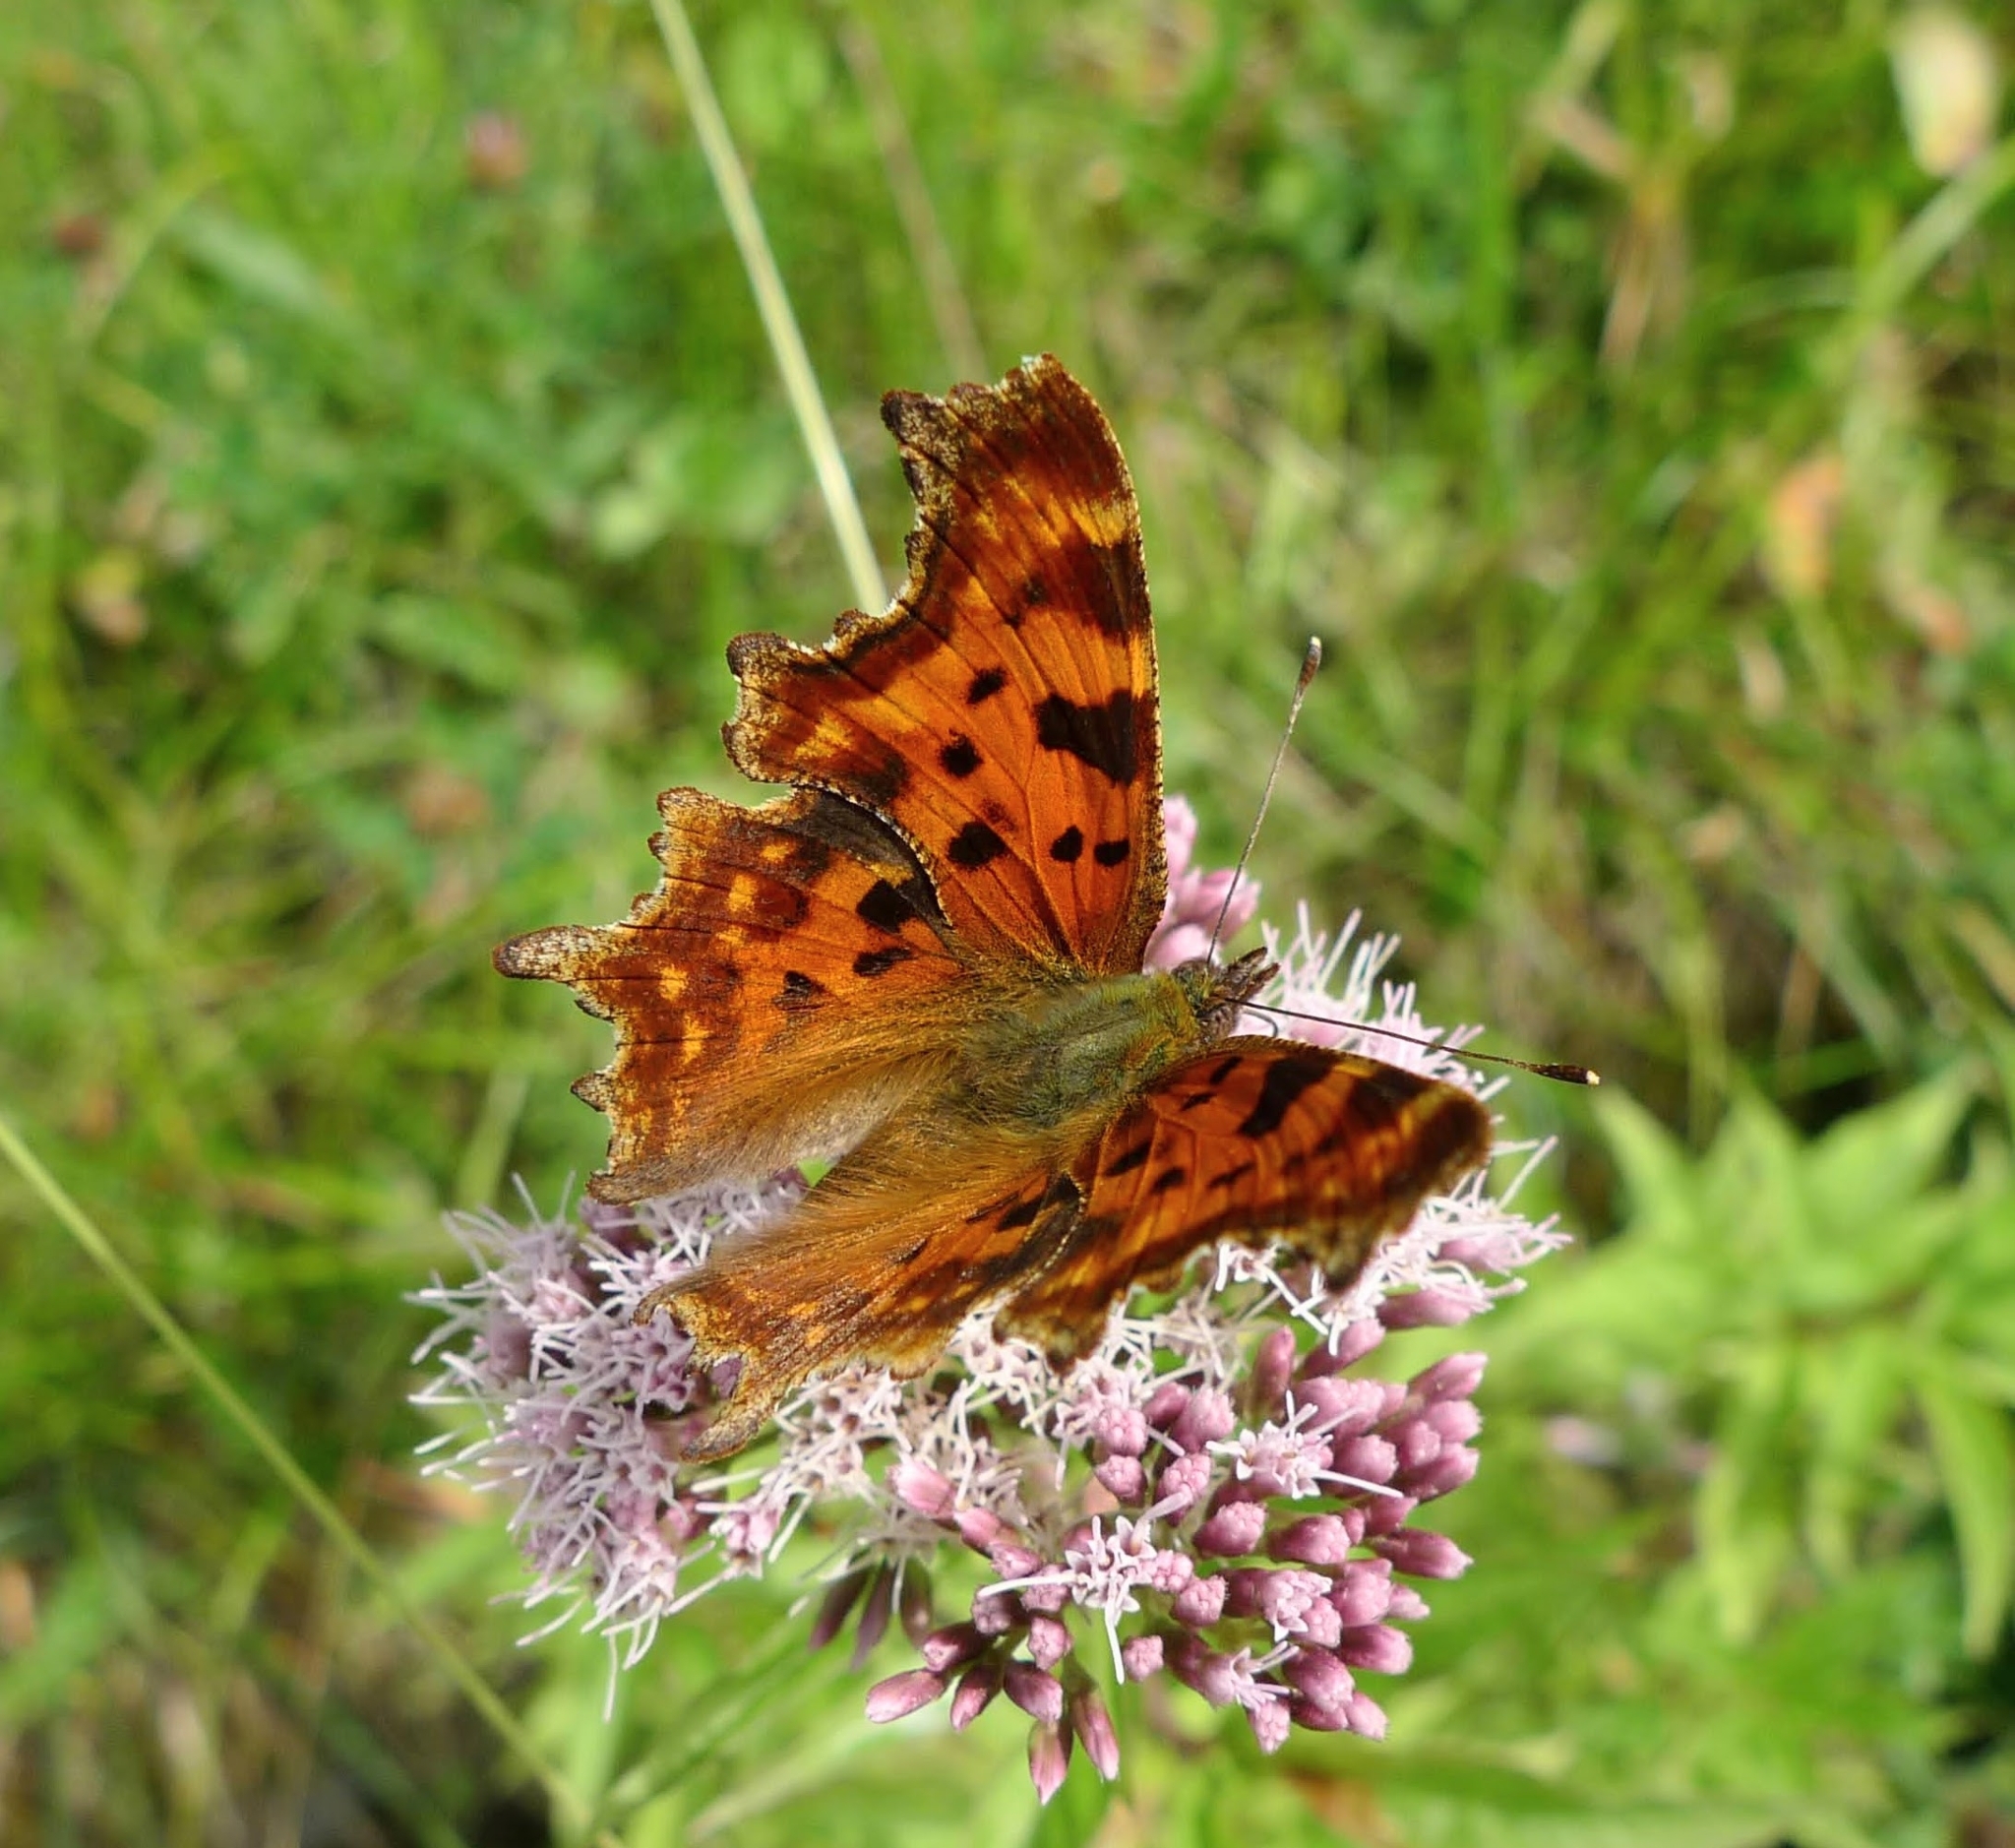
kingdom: Animalia
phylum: Arthropoda
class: Insecta
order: Lepidoptera
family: Nymphalidae
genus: Polygonia
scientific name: Polygonia c-album
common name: Comma
